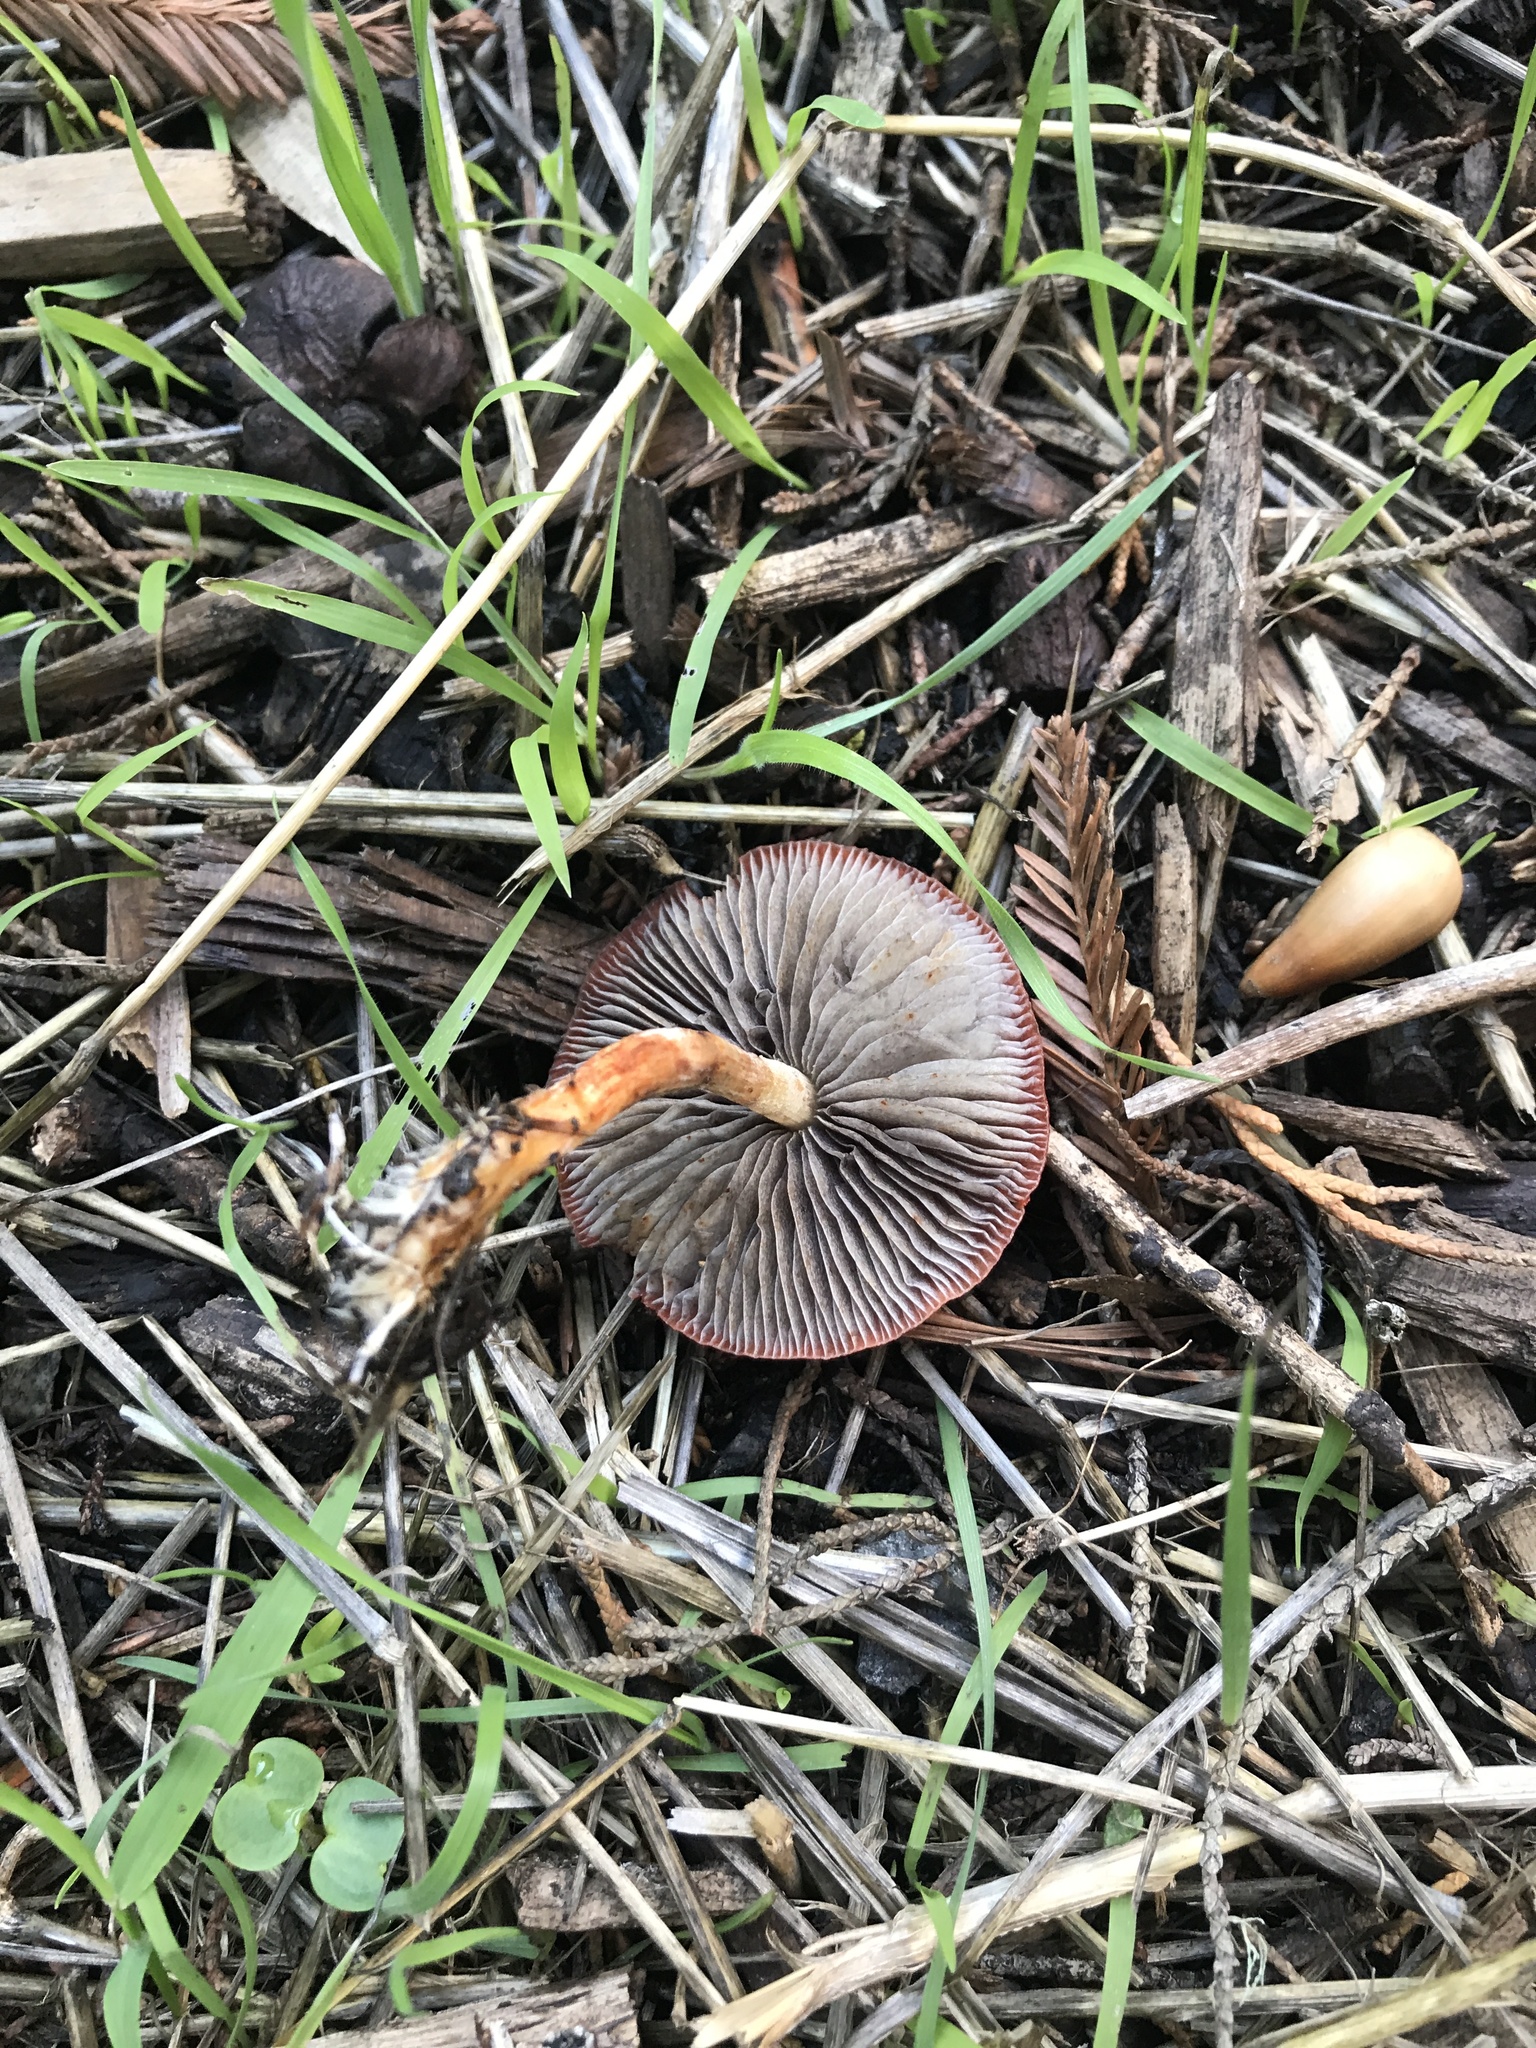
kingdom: Fungi
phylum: Basidiomycota
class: Agaricomycetes
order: Agaricales
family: Strophariaceae
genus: Leratiomyces
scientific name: Leratiomyces ceres
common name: Redlead roundhead
